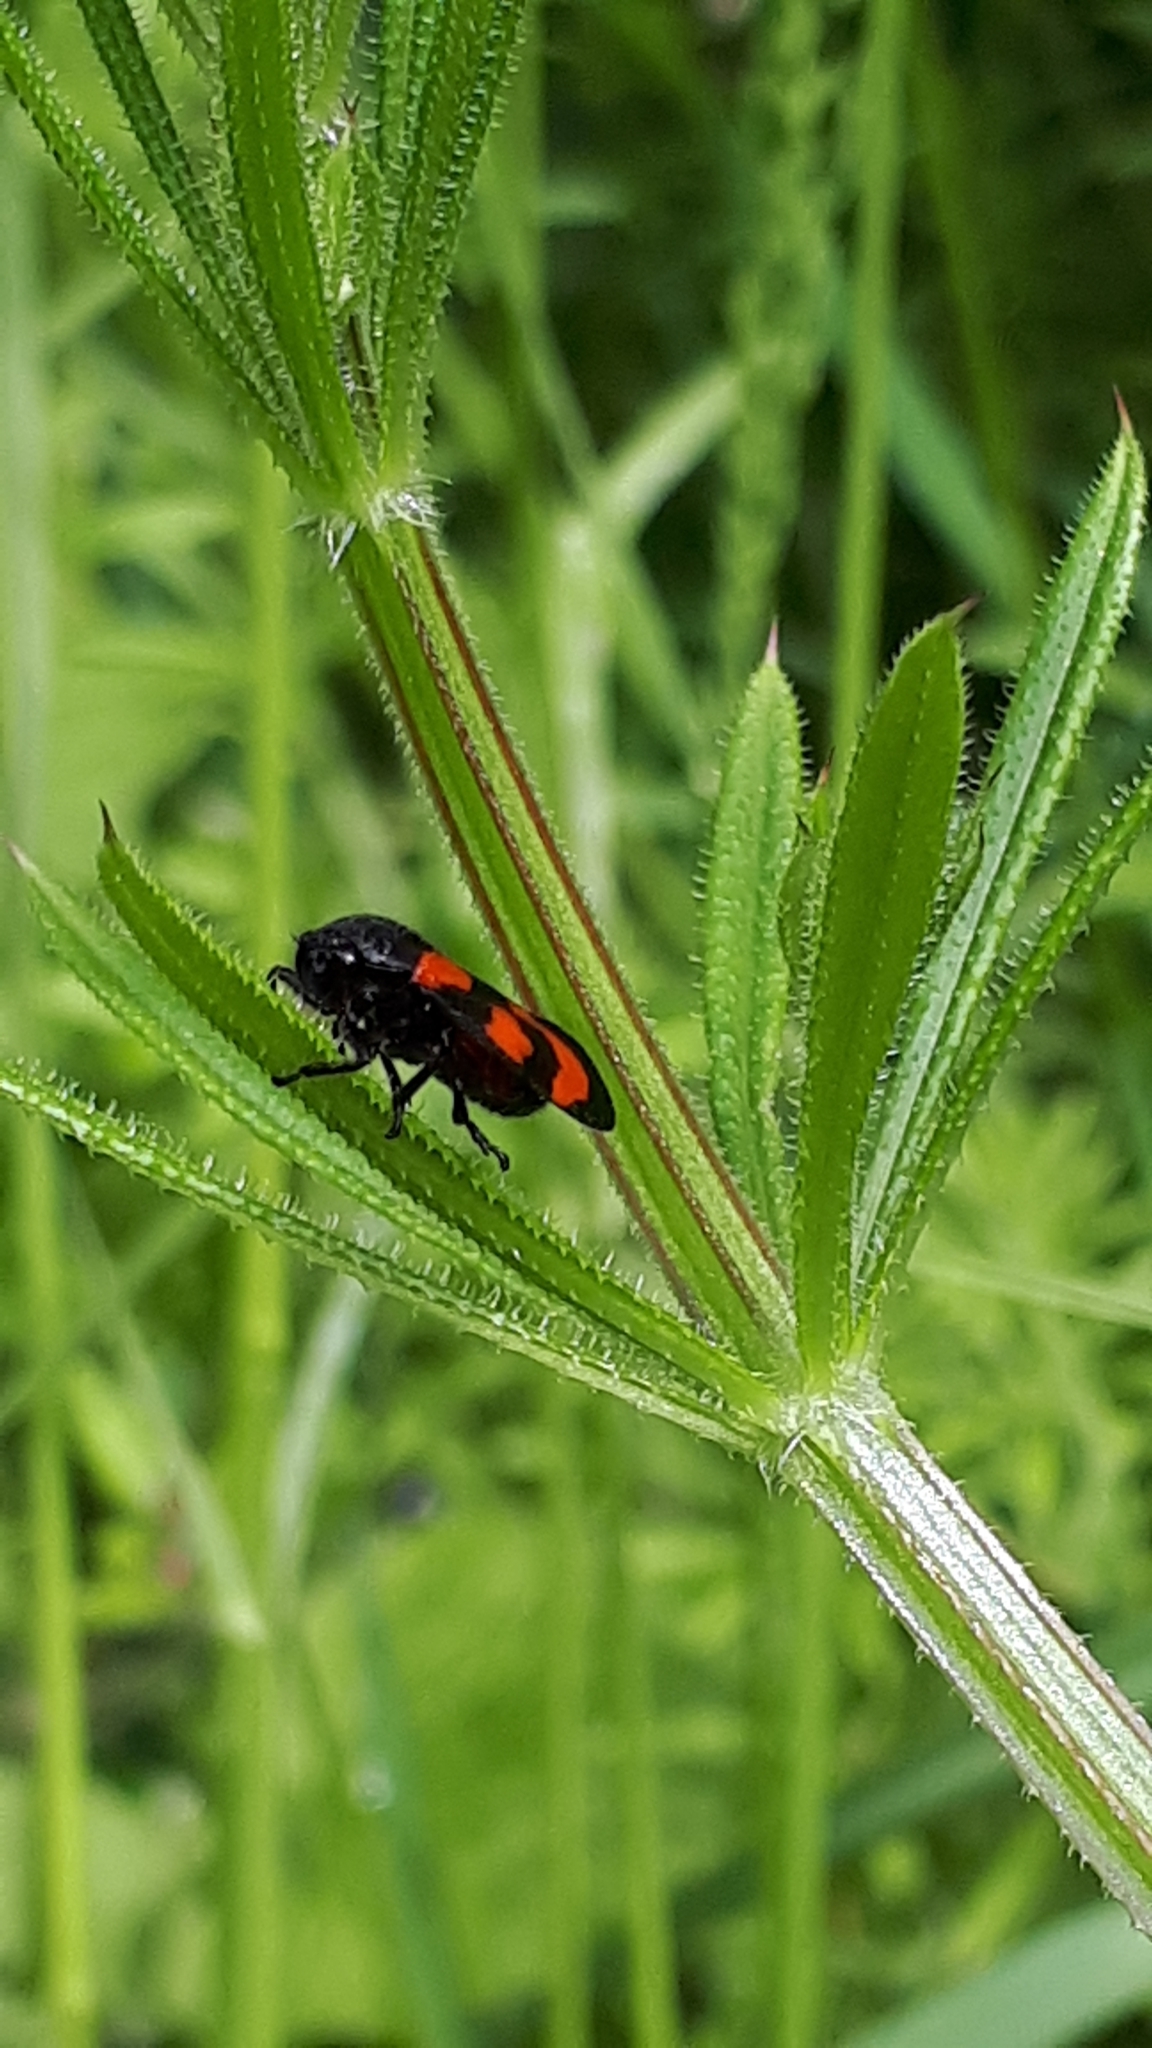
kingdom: Animalia
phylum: Arthropoda
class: Insecta
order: Hemiptera
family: Cercopidae
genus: Cercopis
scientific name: Cercopis vulnerata
